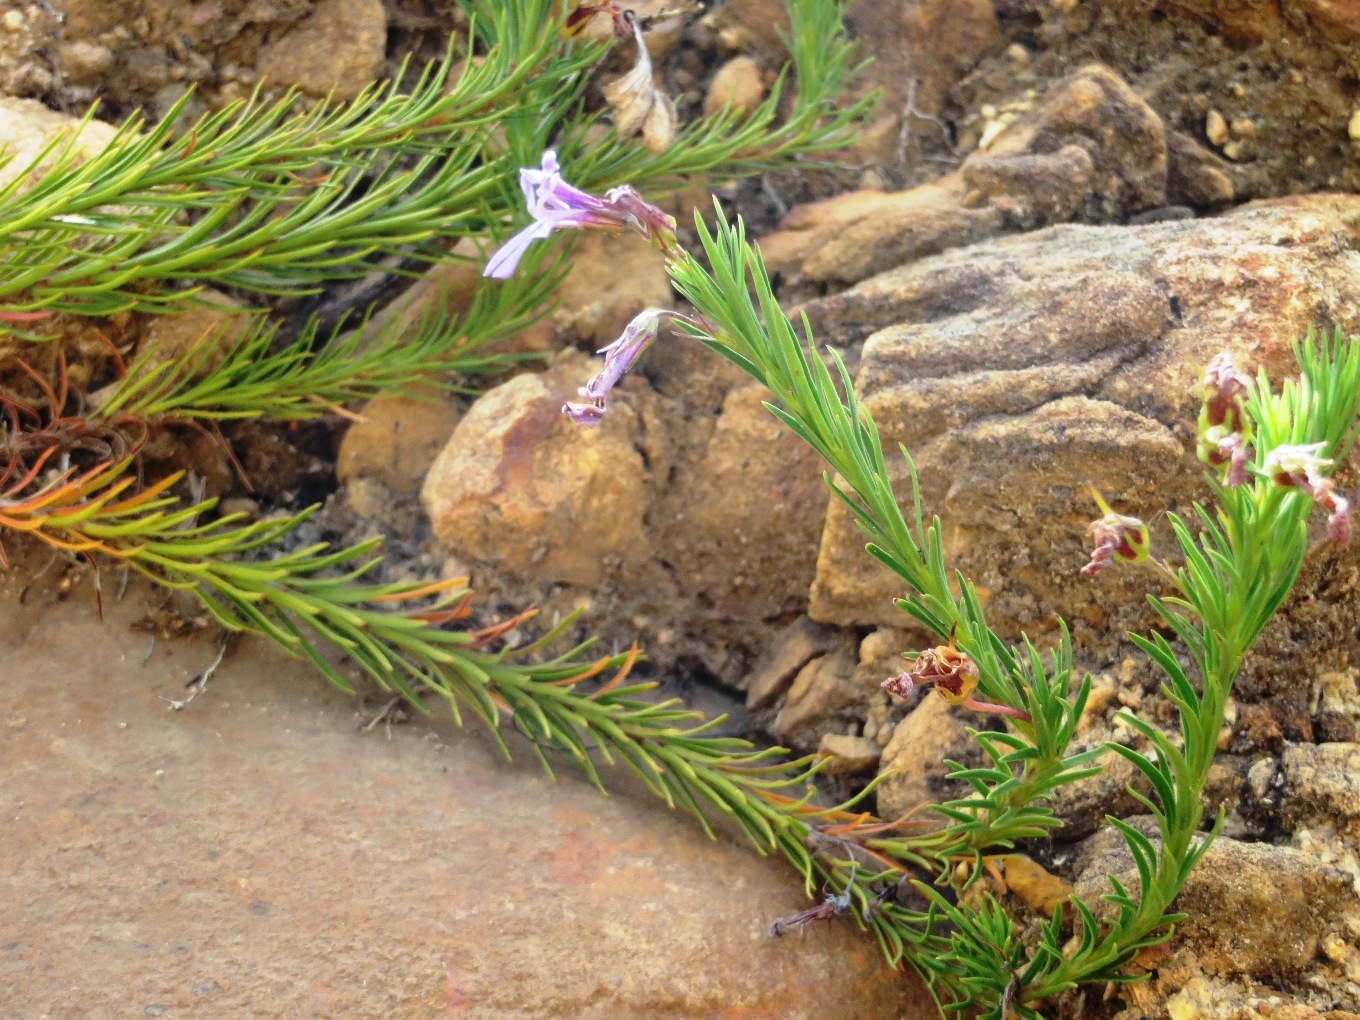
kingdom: Plantae
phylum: Tracheophyta
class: Magnoliopsida
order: Asterales
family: Campanulaceae
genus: Lobelia
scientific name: Lobelia pinifolia
